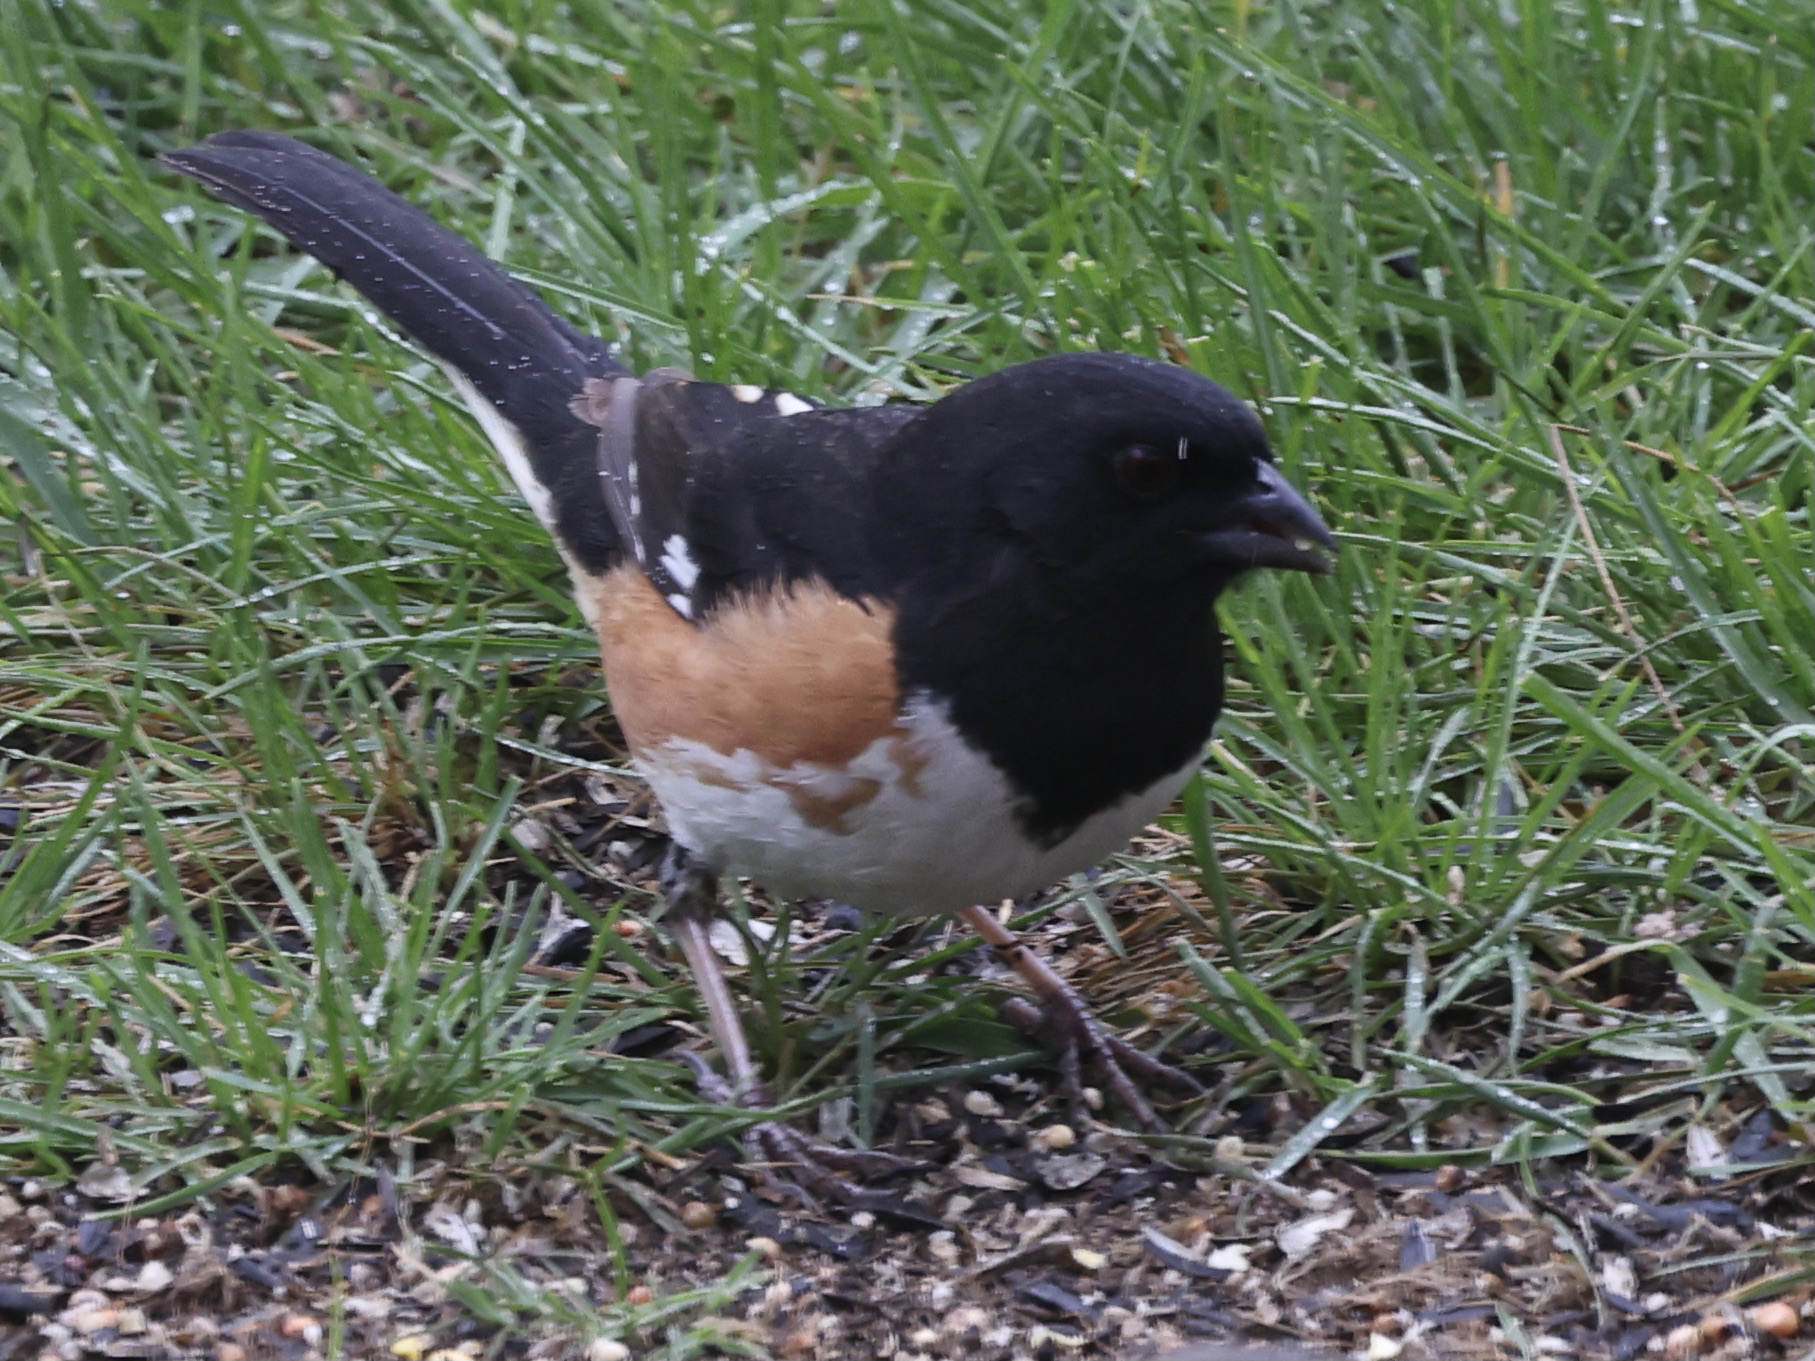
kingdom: Animalia
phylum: Chordata
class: Aves
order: Passeriformes
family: Passerellidae
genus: Pipilo
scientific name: Pipilo erythrophthalmus
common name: Eastern towhee
